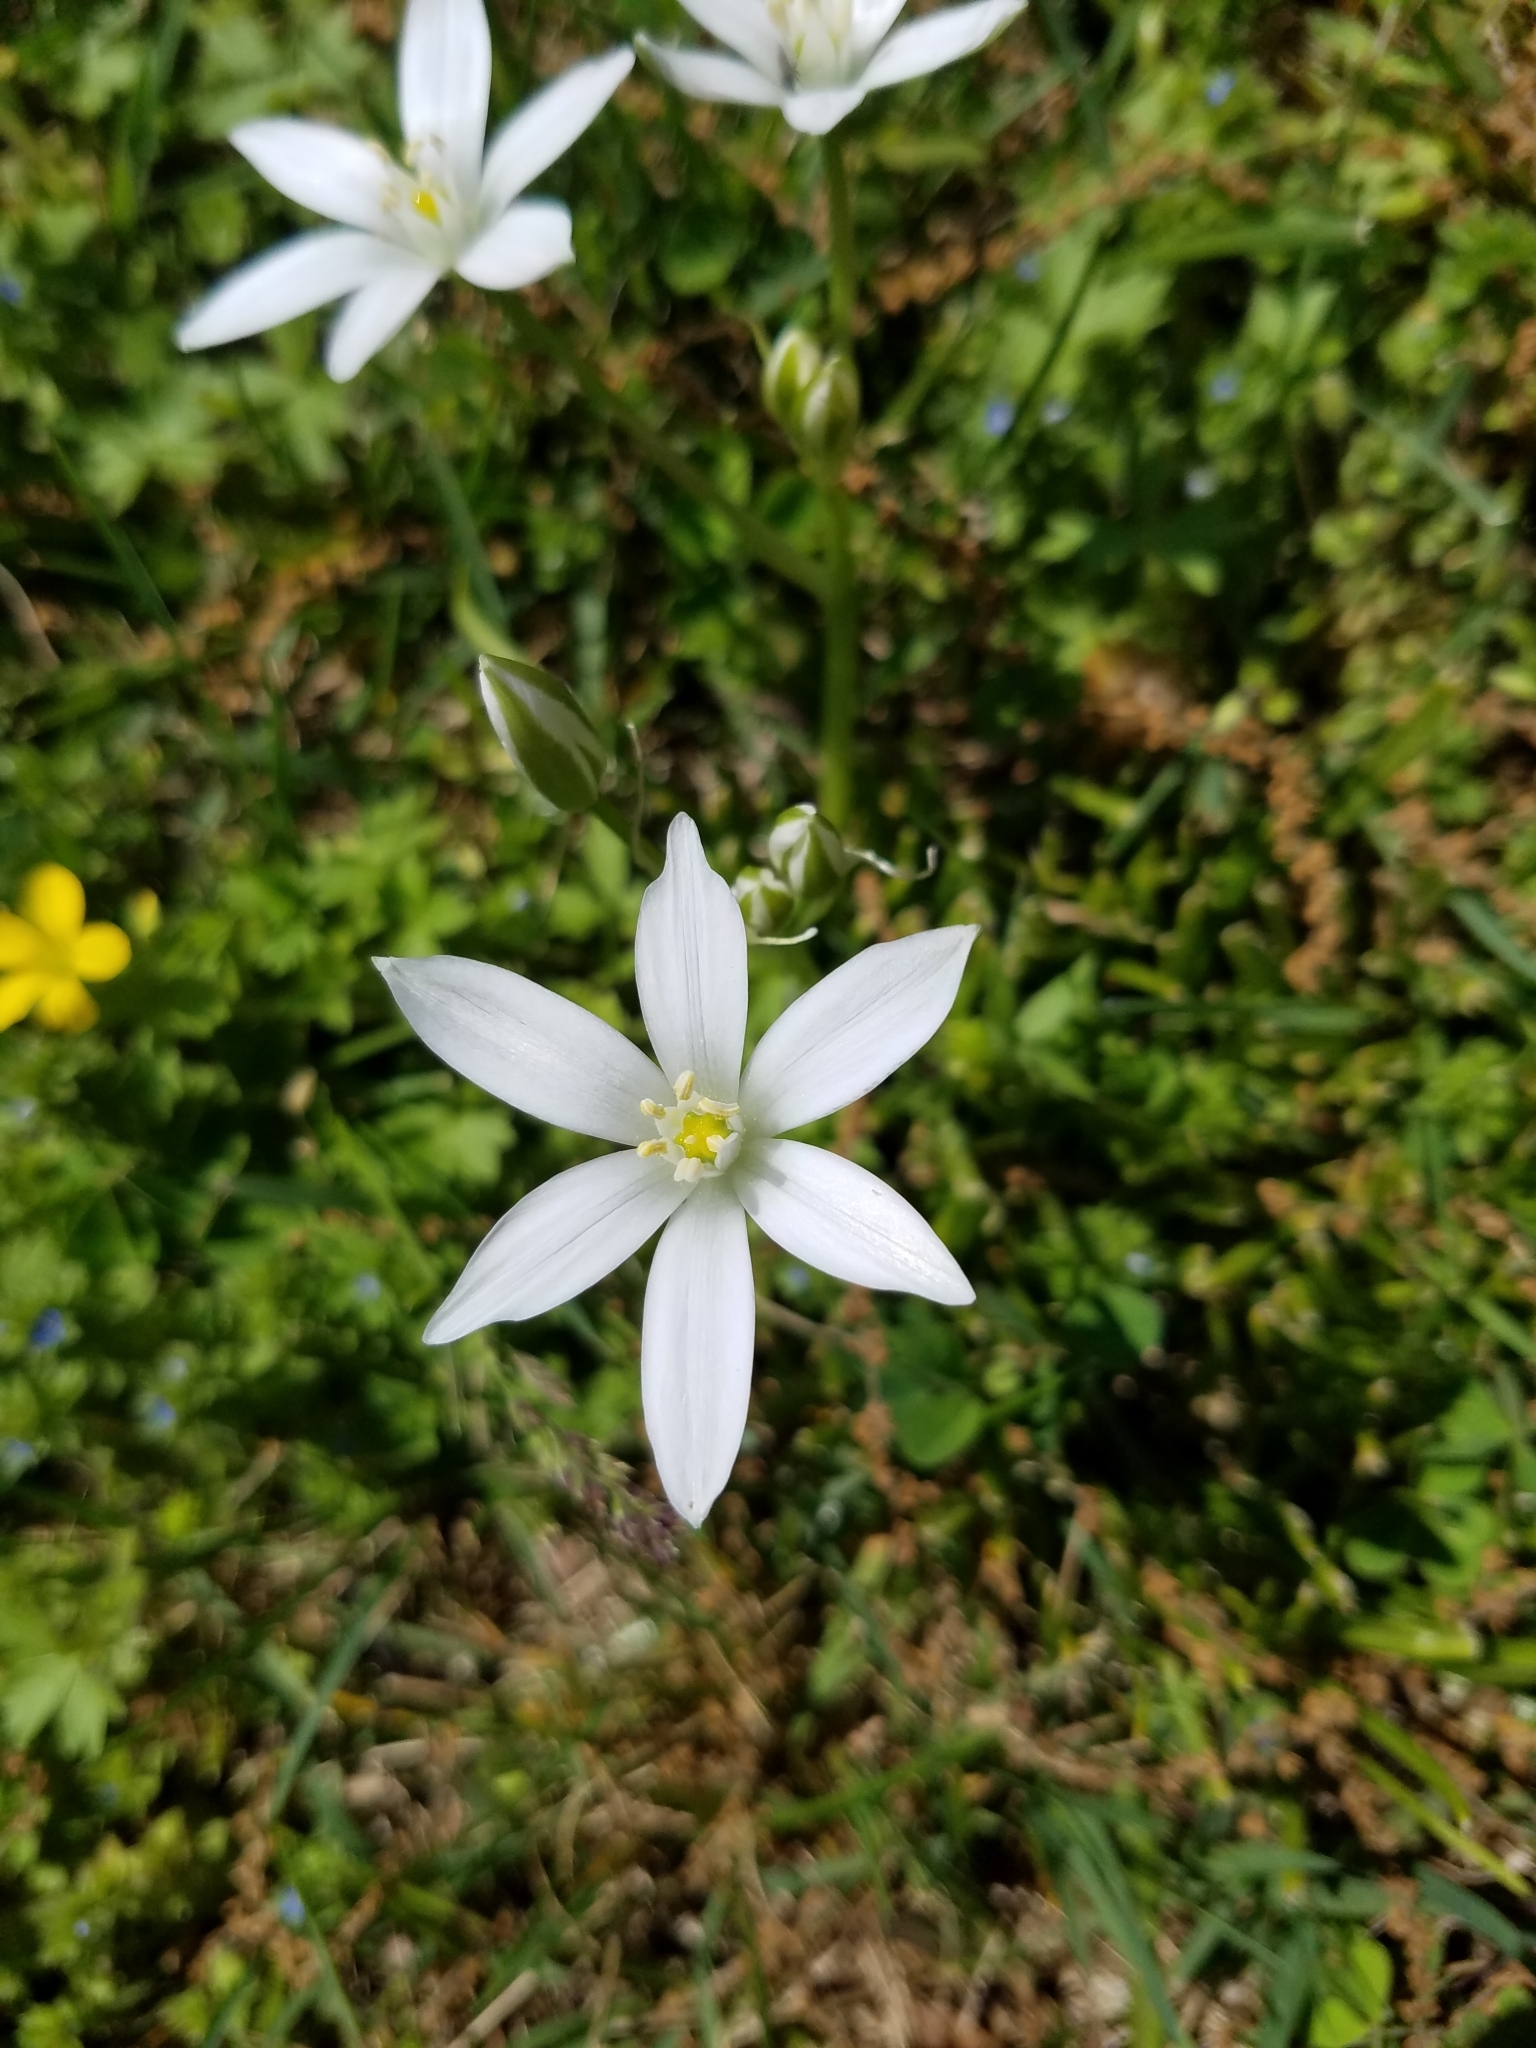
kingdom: Plantae
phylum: Tracheophyta
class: Liliopsida
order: Asparagales
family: Asparagaceae
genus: Ornithogalum
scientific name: Ornithogalum umbellatum
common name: Garden star-of-bethlehem
